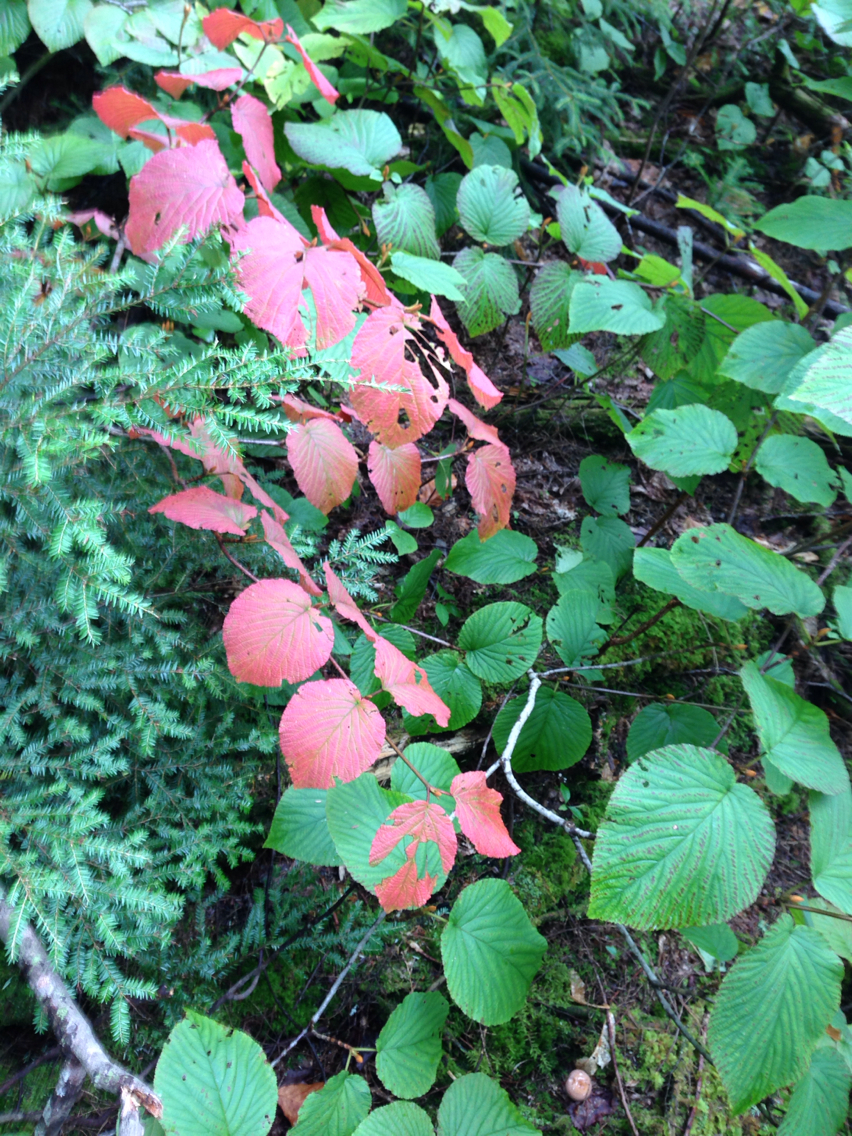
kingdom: Plantae
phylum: Tracheophyta
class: Magnoliopsida
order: Dipsacales
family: Viburnaceae
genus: Viburnum
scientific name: Viburnum lantanoides
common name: Hobblebush
